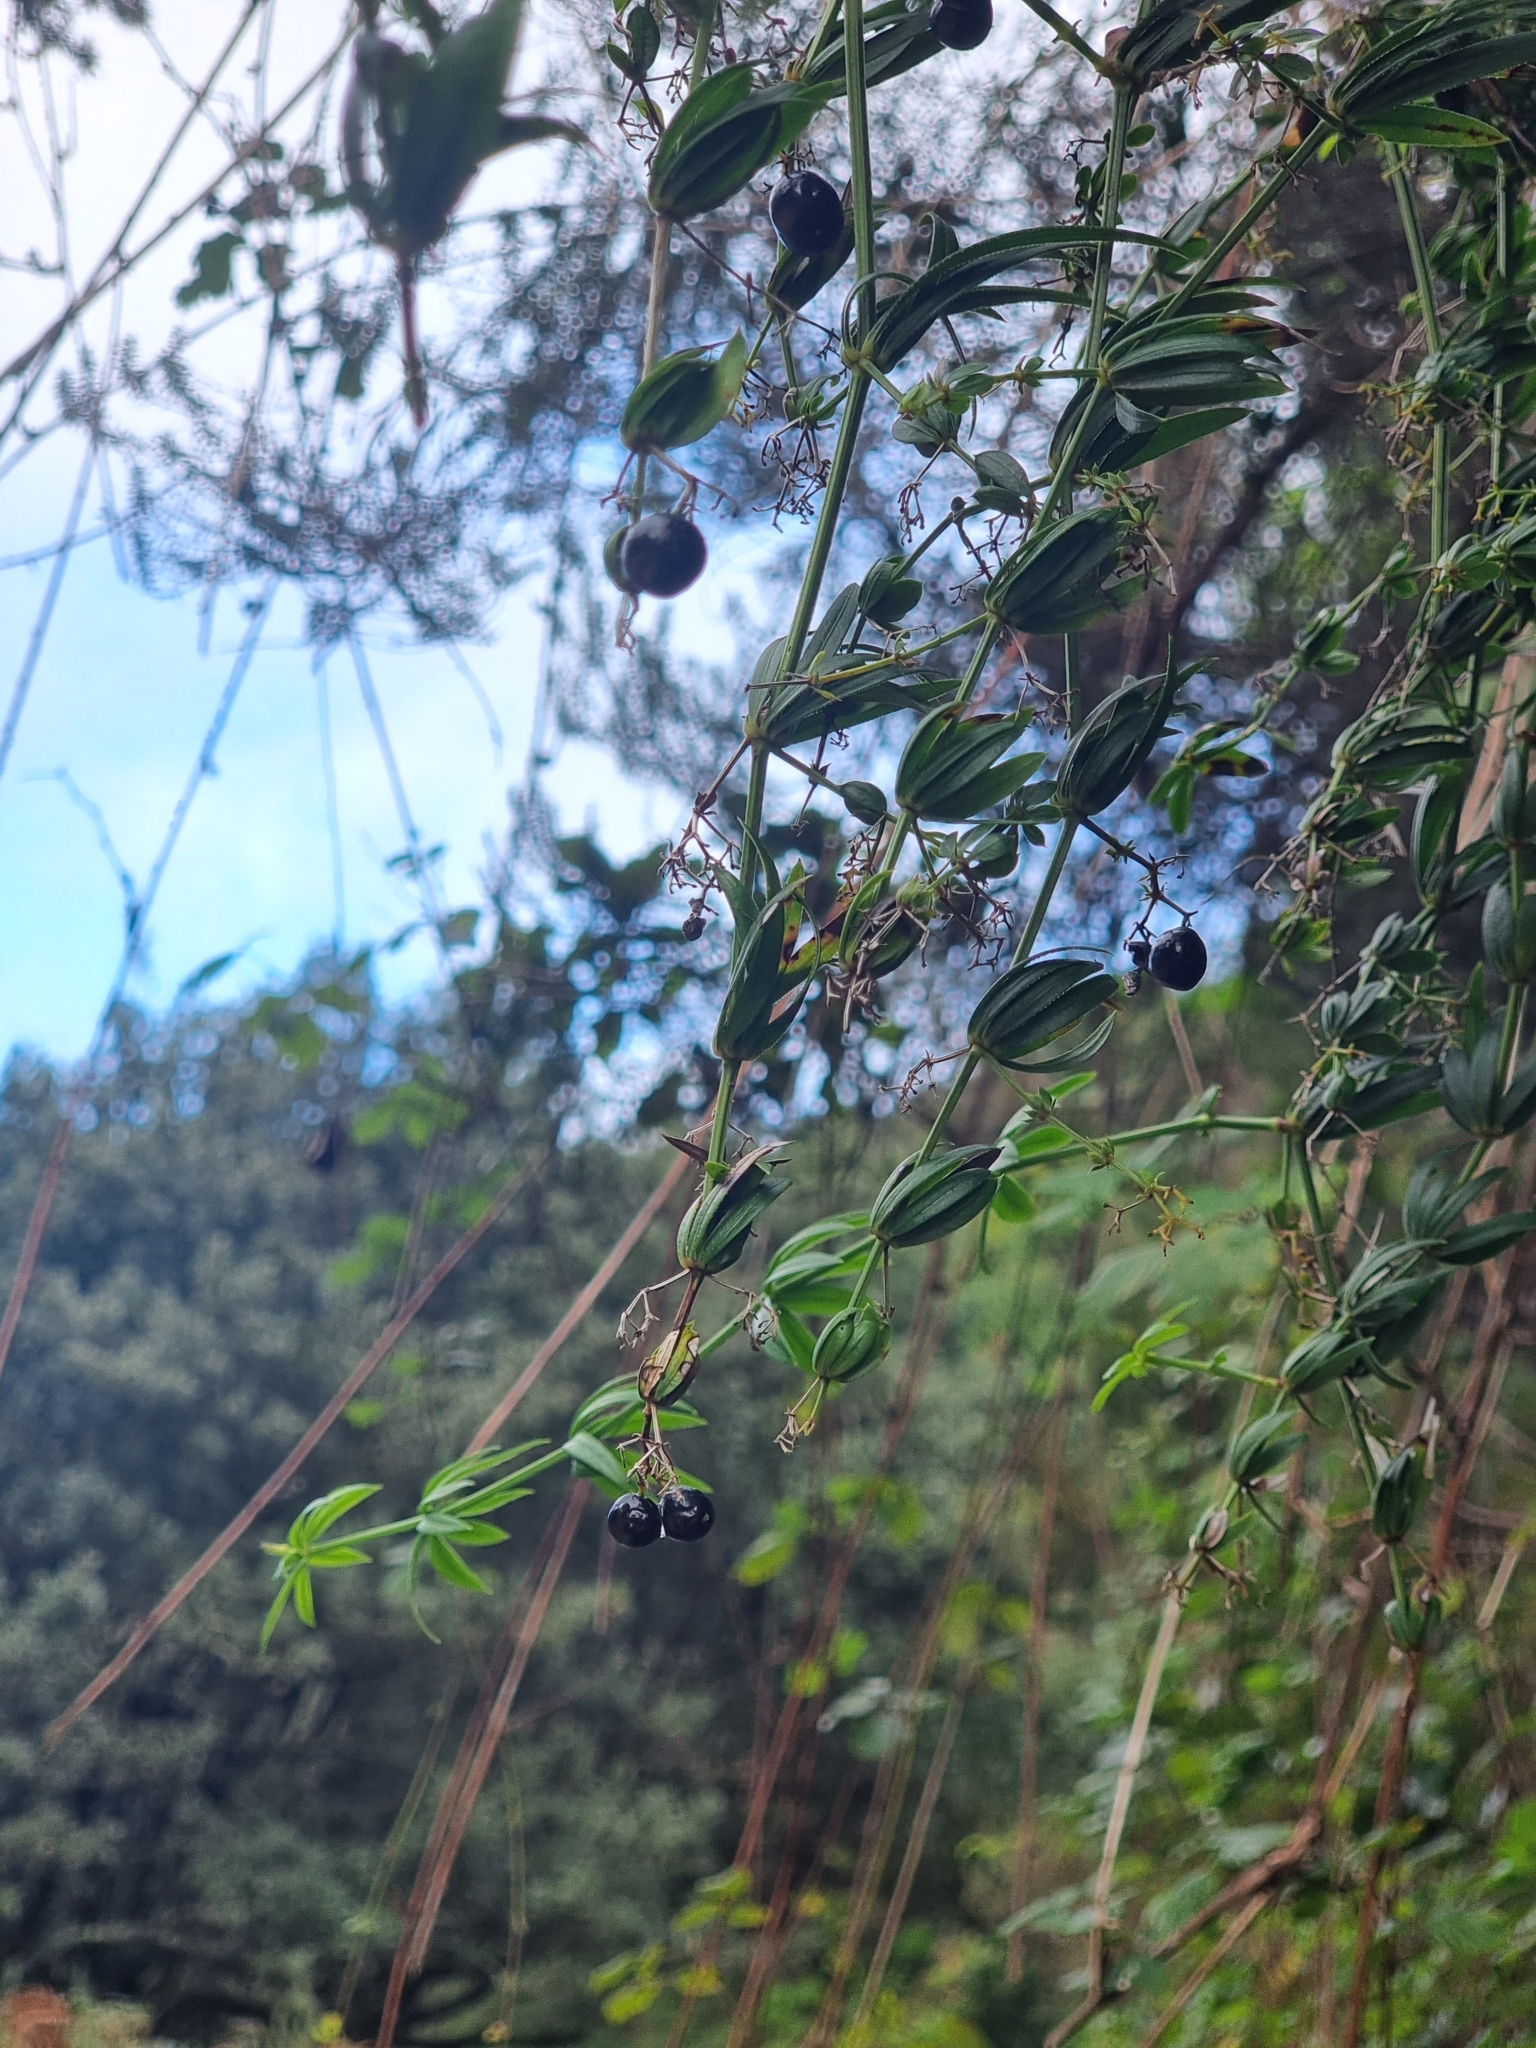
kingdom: Plantae
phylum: Tracheophyta
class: Magnoliopsida
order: Gentianales
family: Rubiaceae
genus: Rubia
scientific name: Rubia occidens
